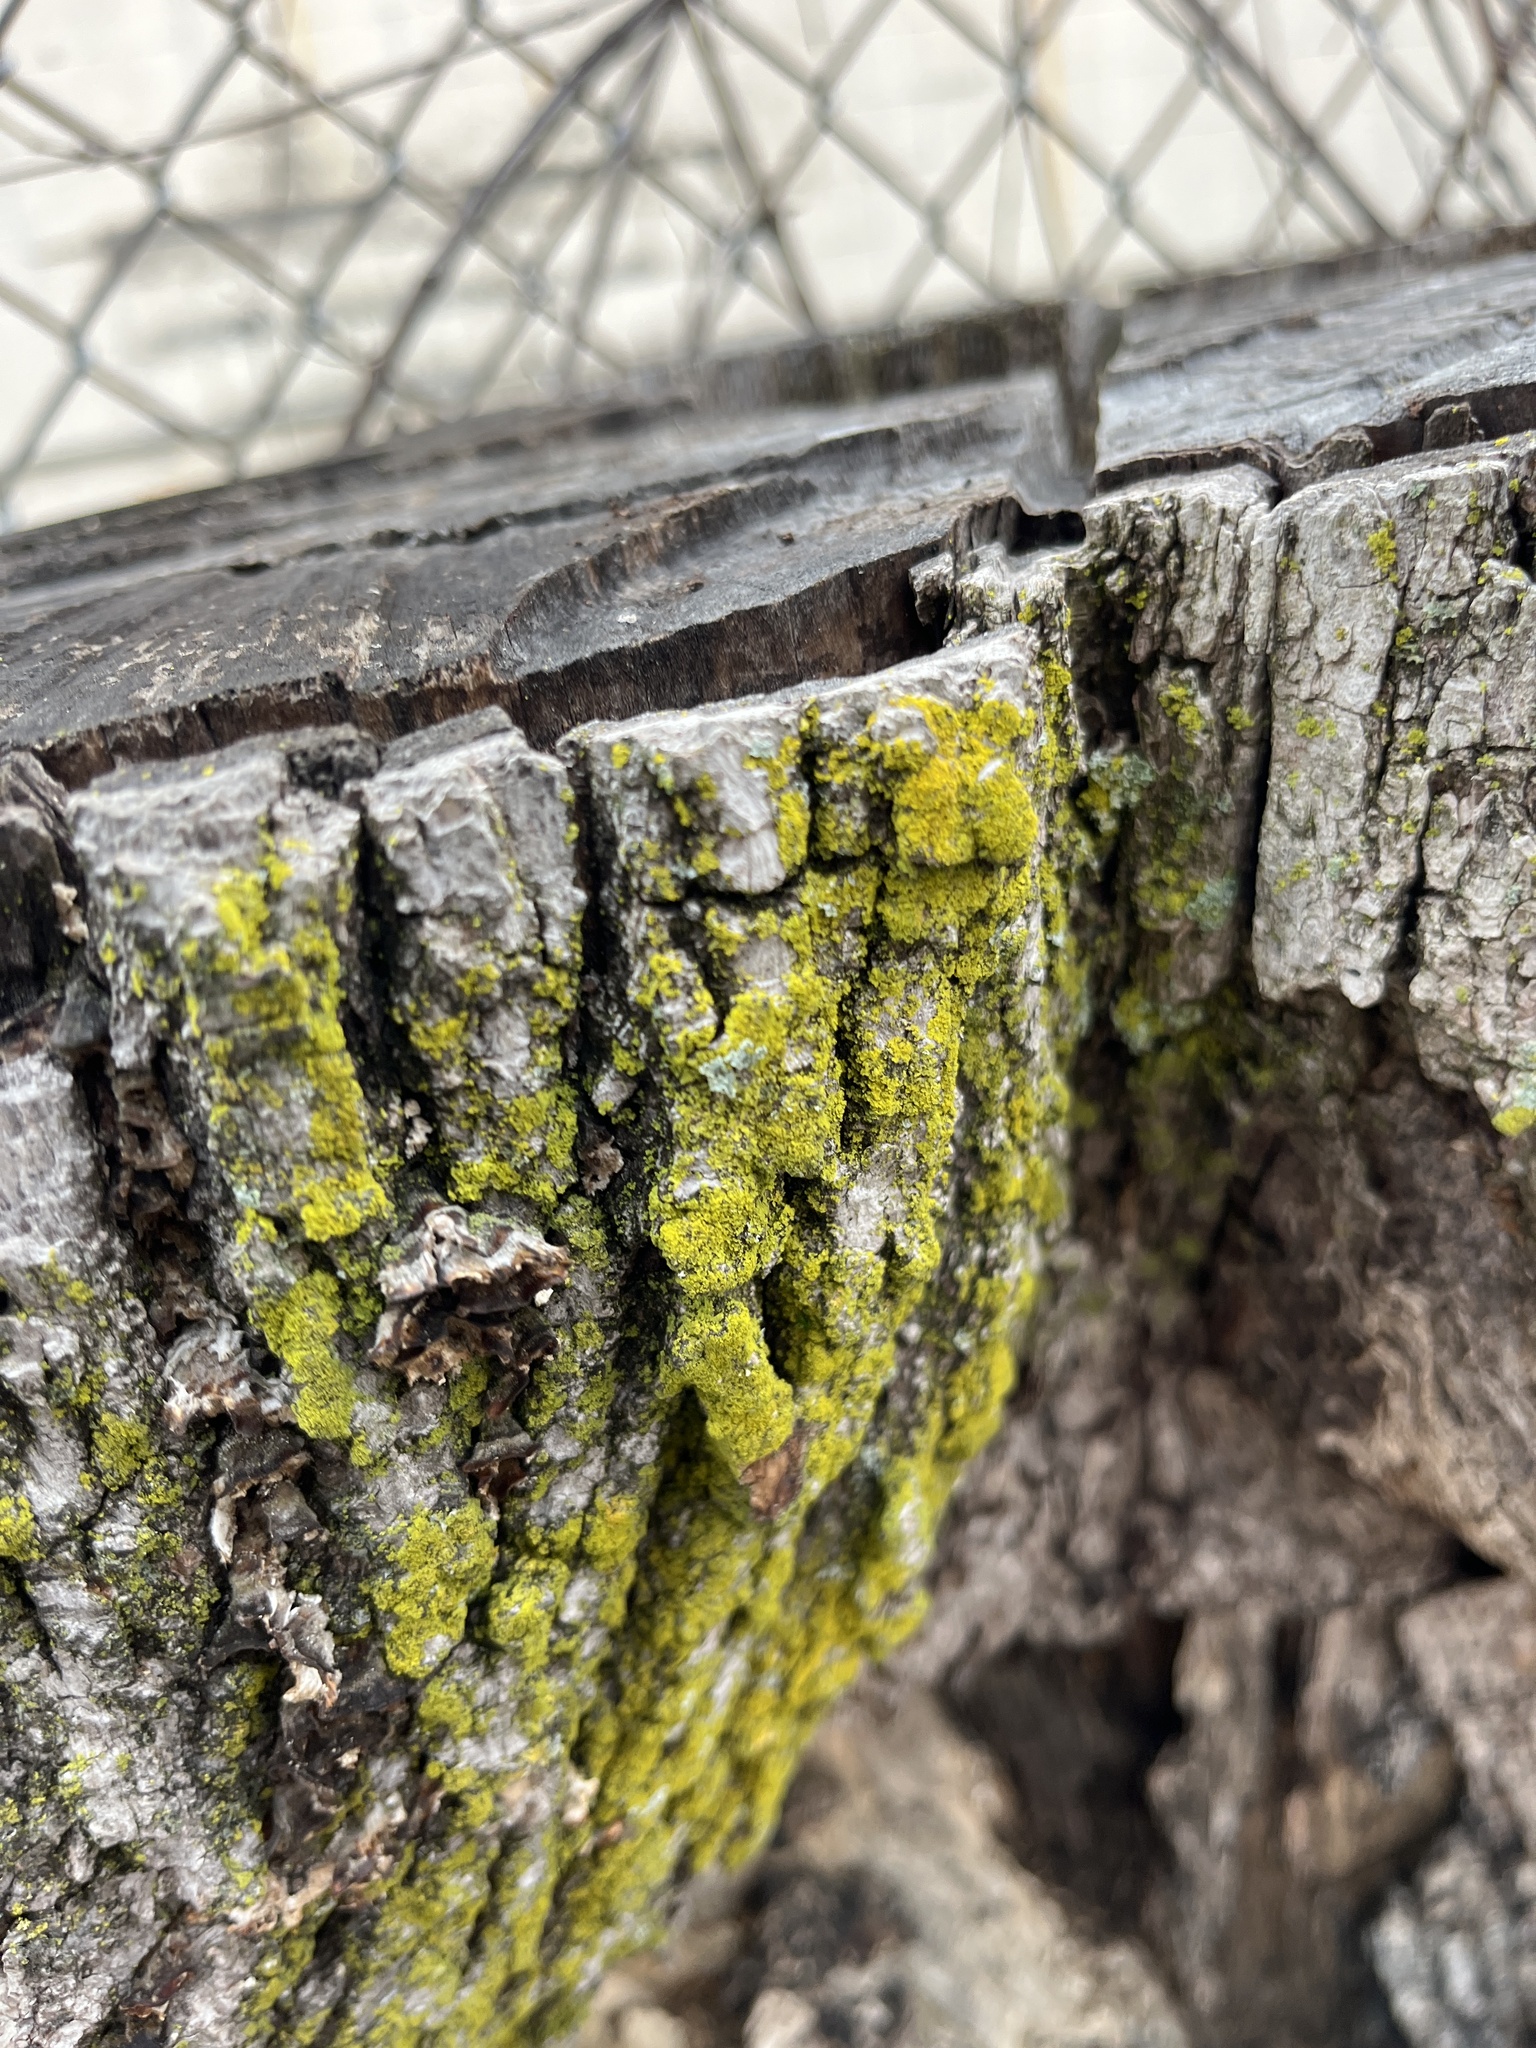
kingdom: Fungi
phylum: Ascomycota
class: Arthoniomycetes
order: Arthoniales
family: Chrysotrichaceae
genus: Chrysothrix
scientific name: Chrysothrix xanthina
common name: Common gold-dust
